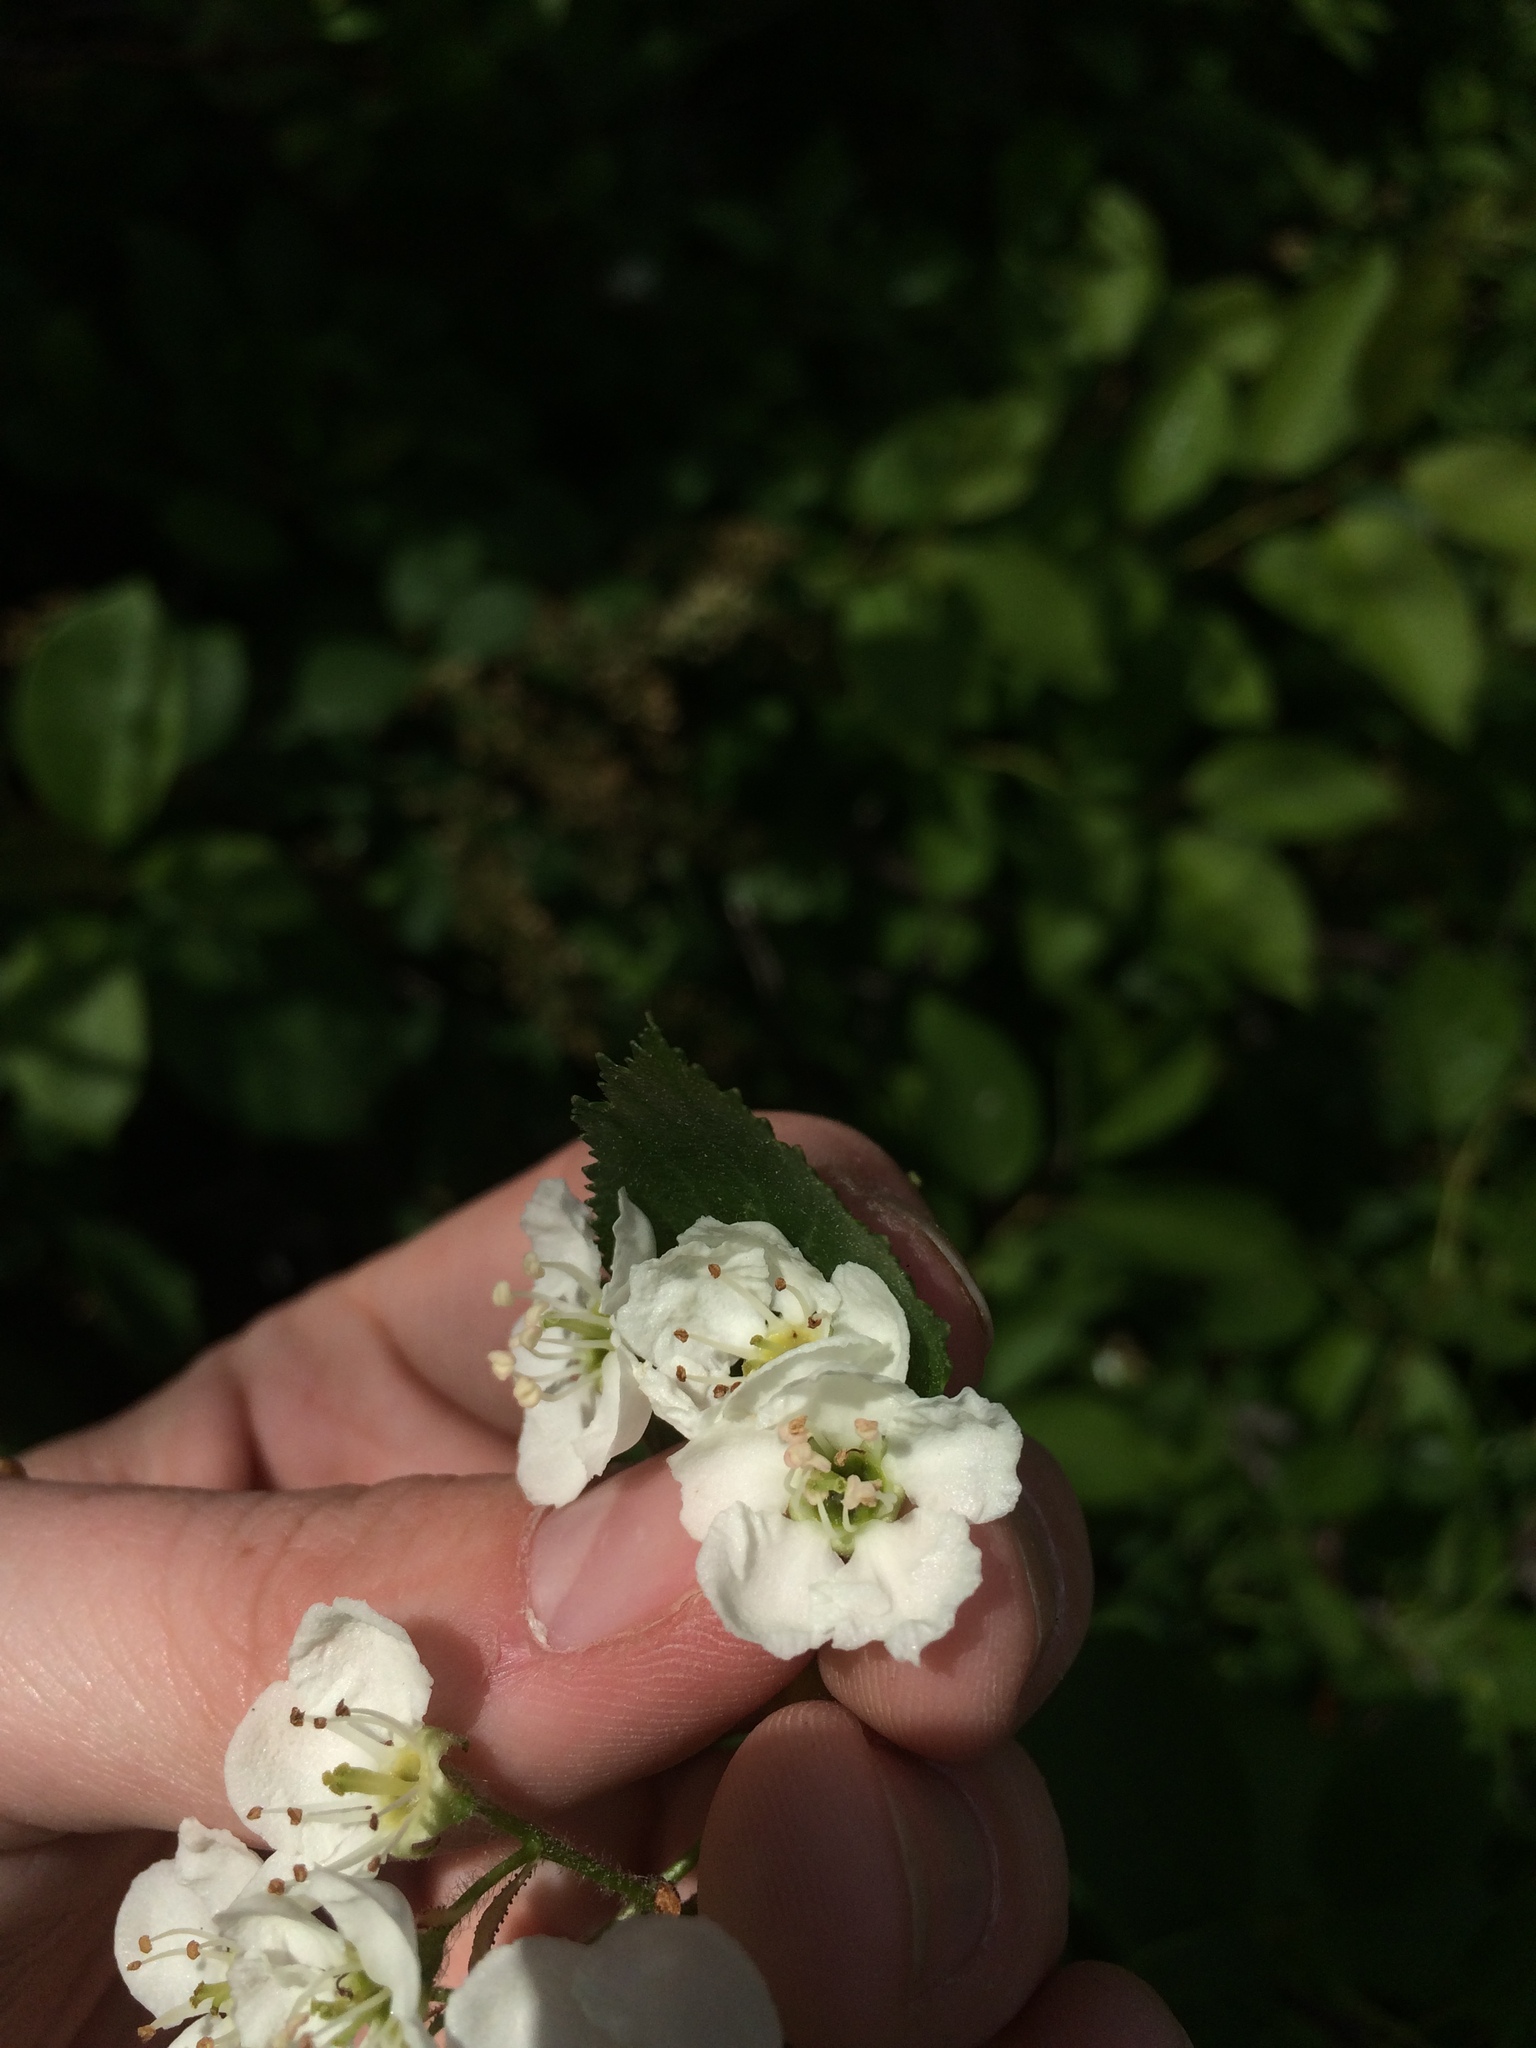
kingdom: Plantae
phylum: Tracheophyta
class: Magnoliopsida
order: Rosales
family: Rosaceae
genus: Crataegus
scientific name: Crataegus macracantha
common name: Large-thorn hawthorn
